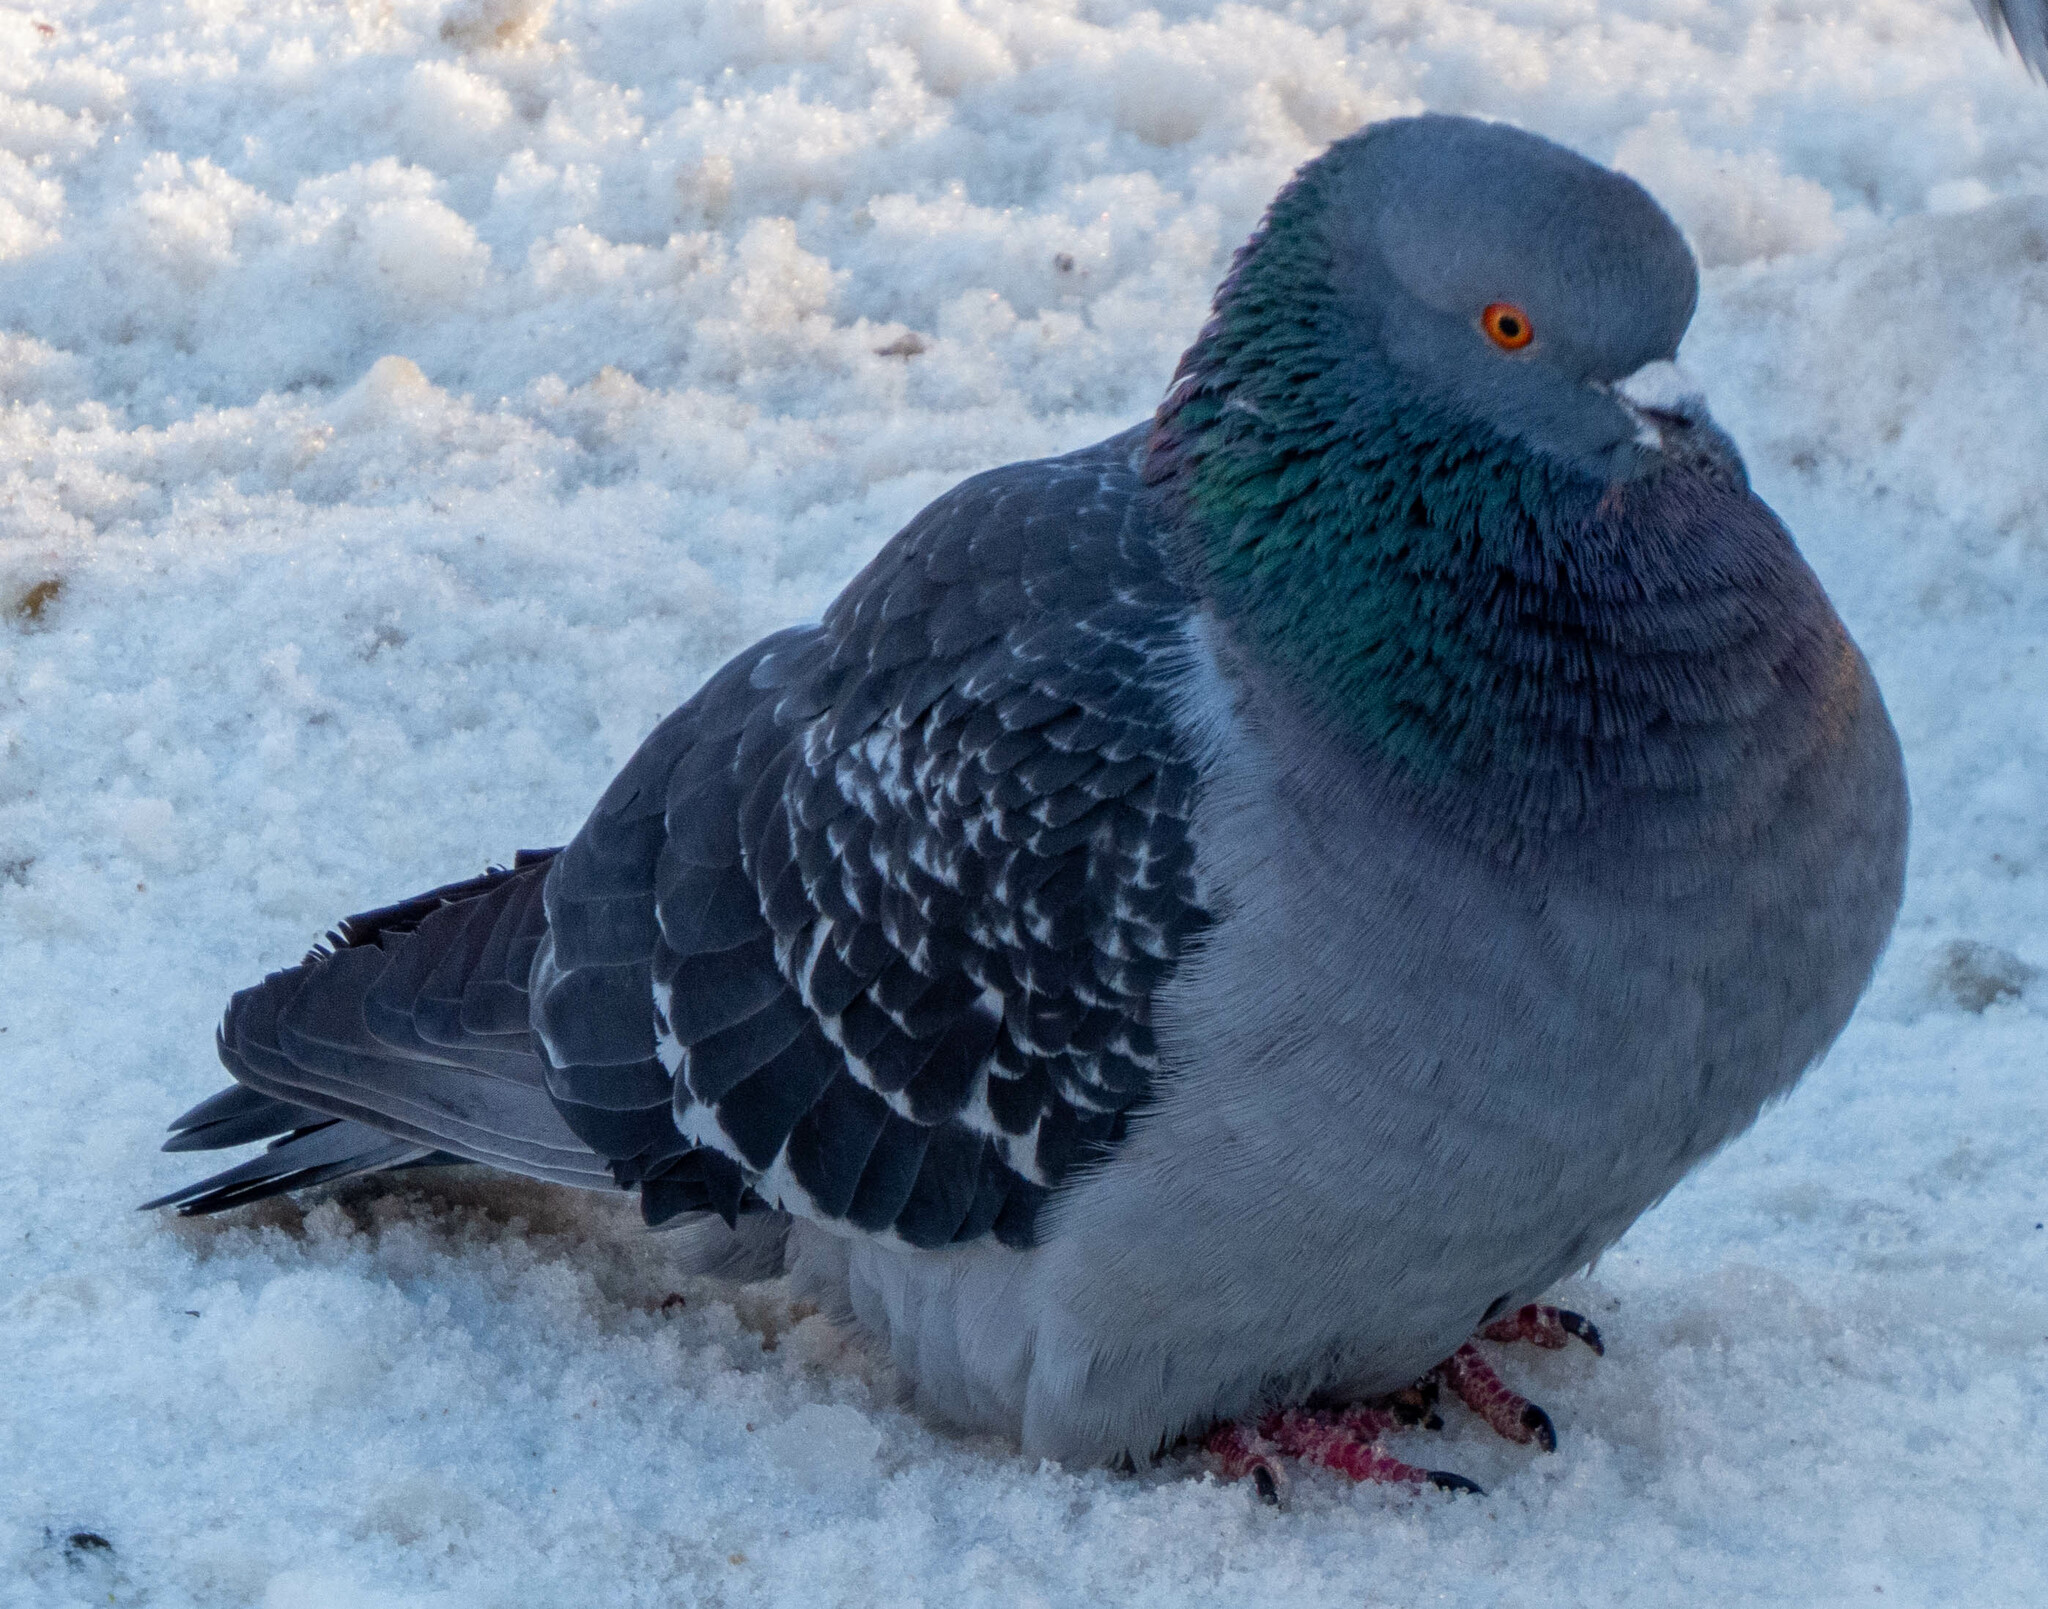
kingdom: Animalia
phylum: Chordata
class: Aves
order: Columbiformes
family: Columbidae
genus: Columba
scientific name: Columba livia
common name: Rock pigeon
